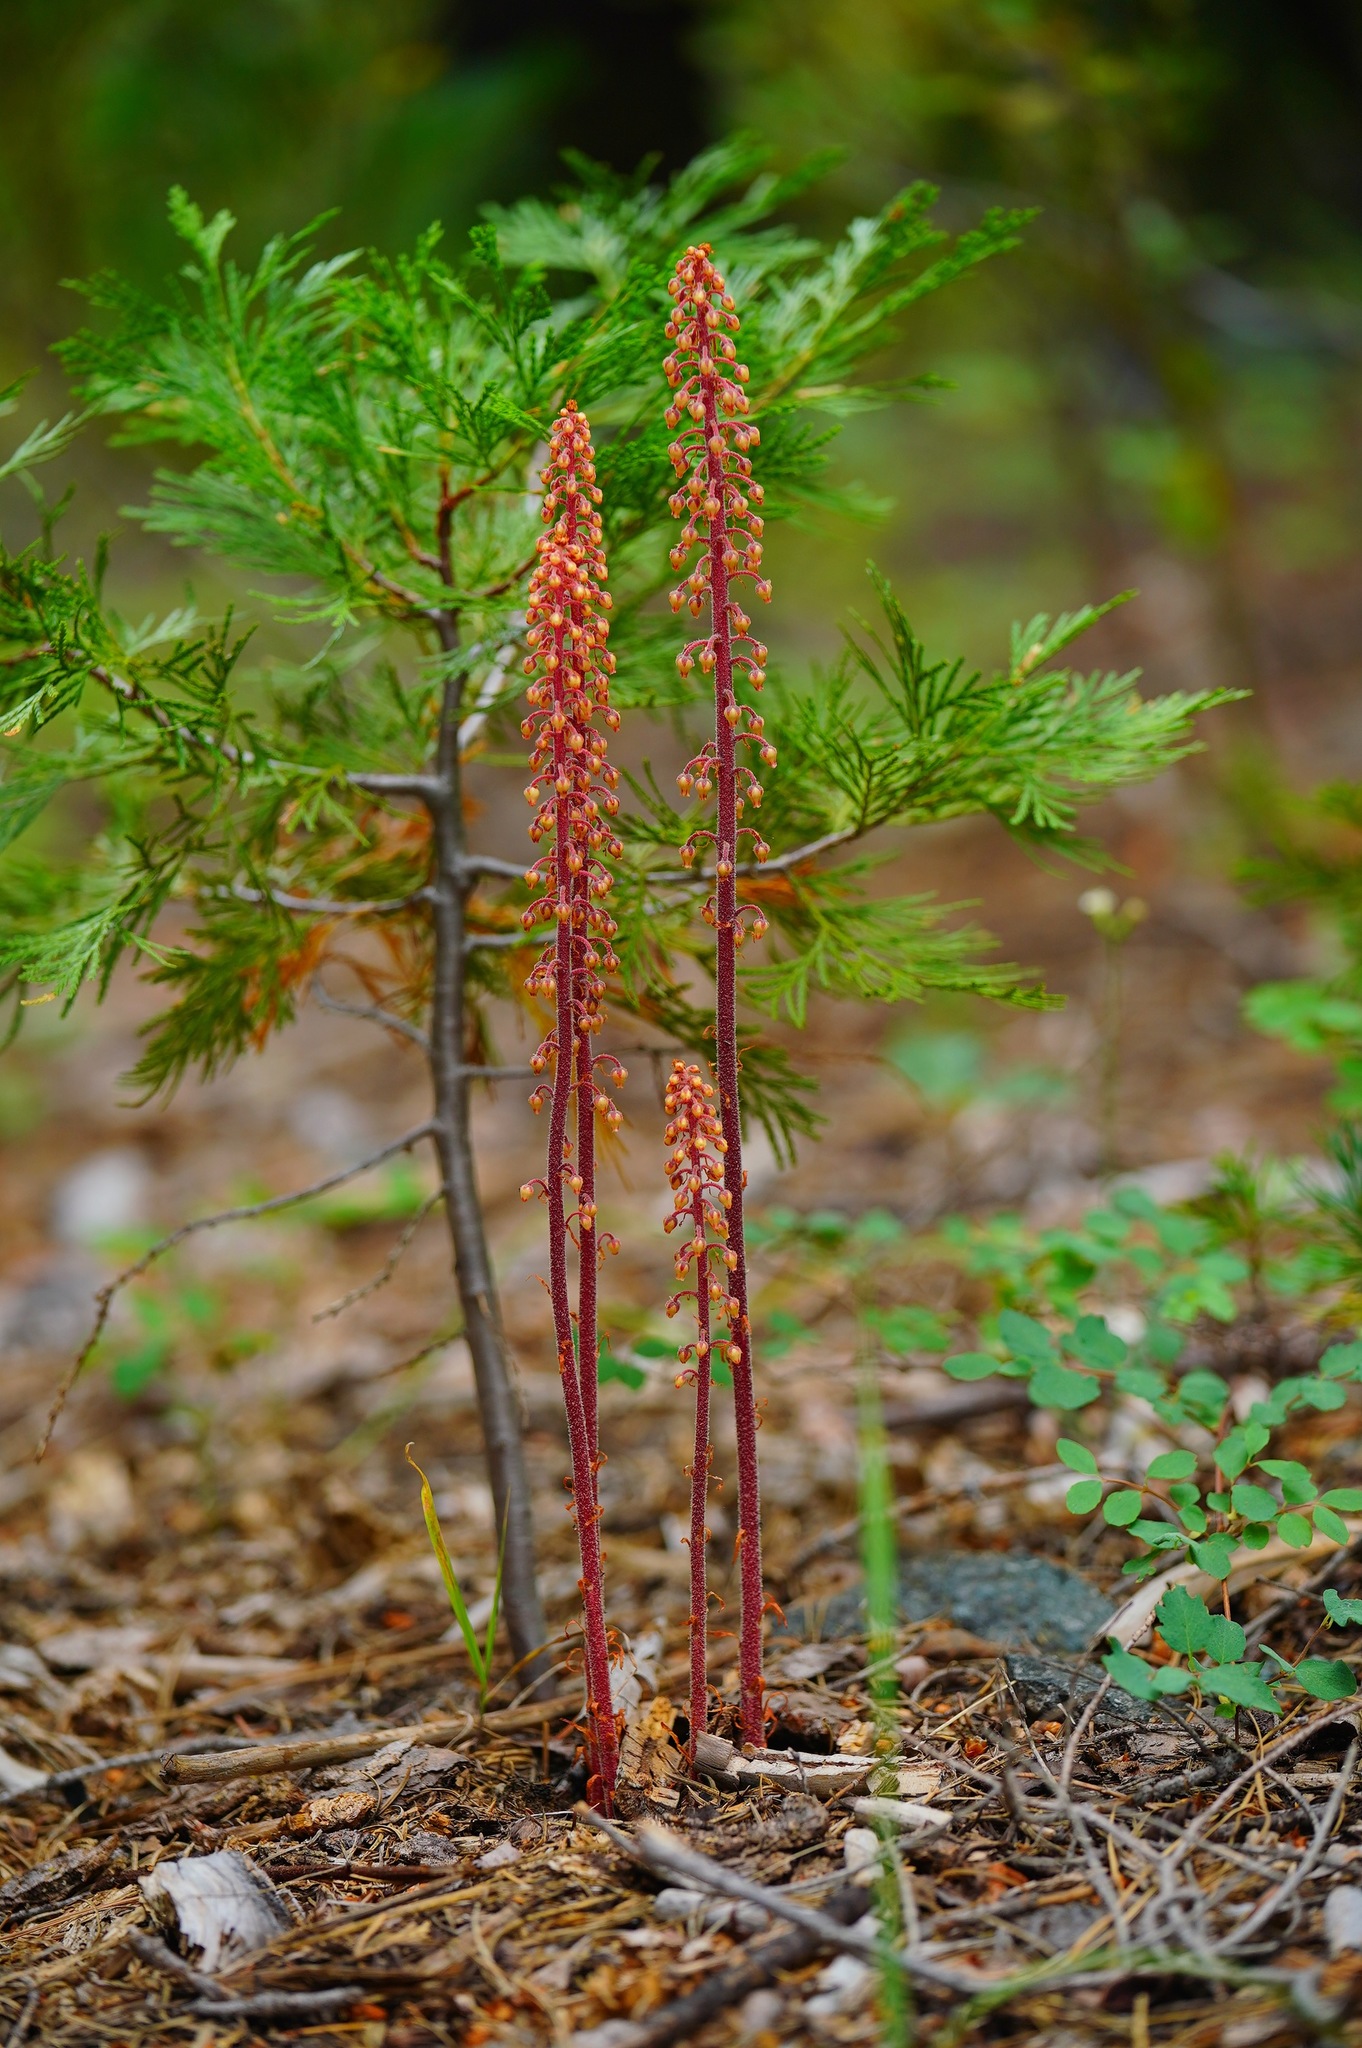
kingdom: Plantae
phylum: Tracheophyta
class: Magnoliopsida
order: Ericales
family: Ericaceae
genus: Pterospora
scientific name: Pterospora andromedea
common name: Giant bird's-nest
